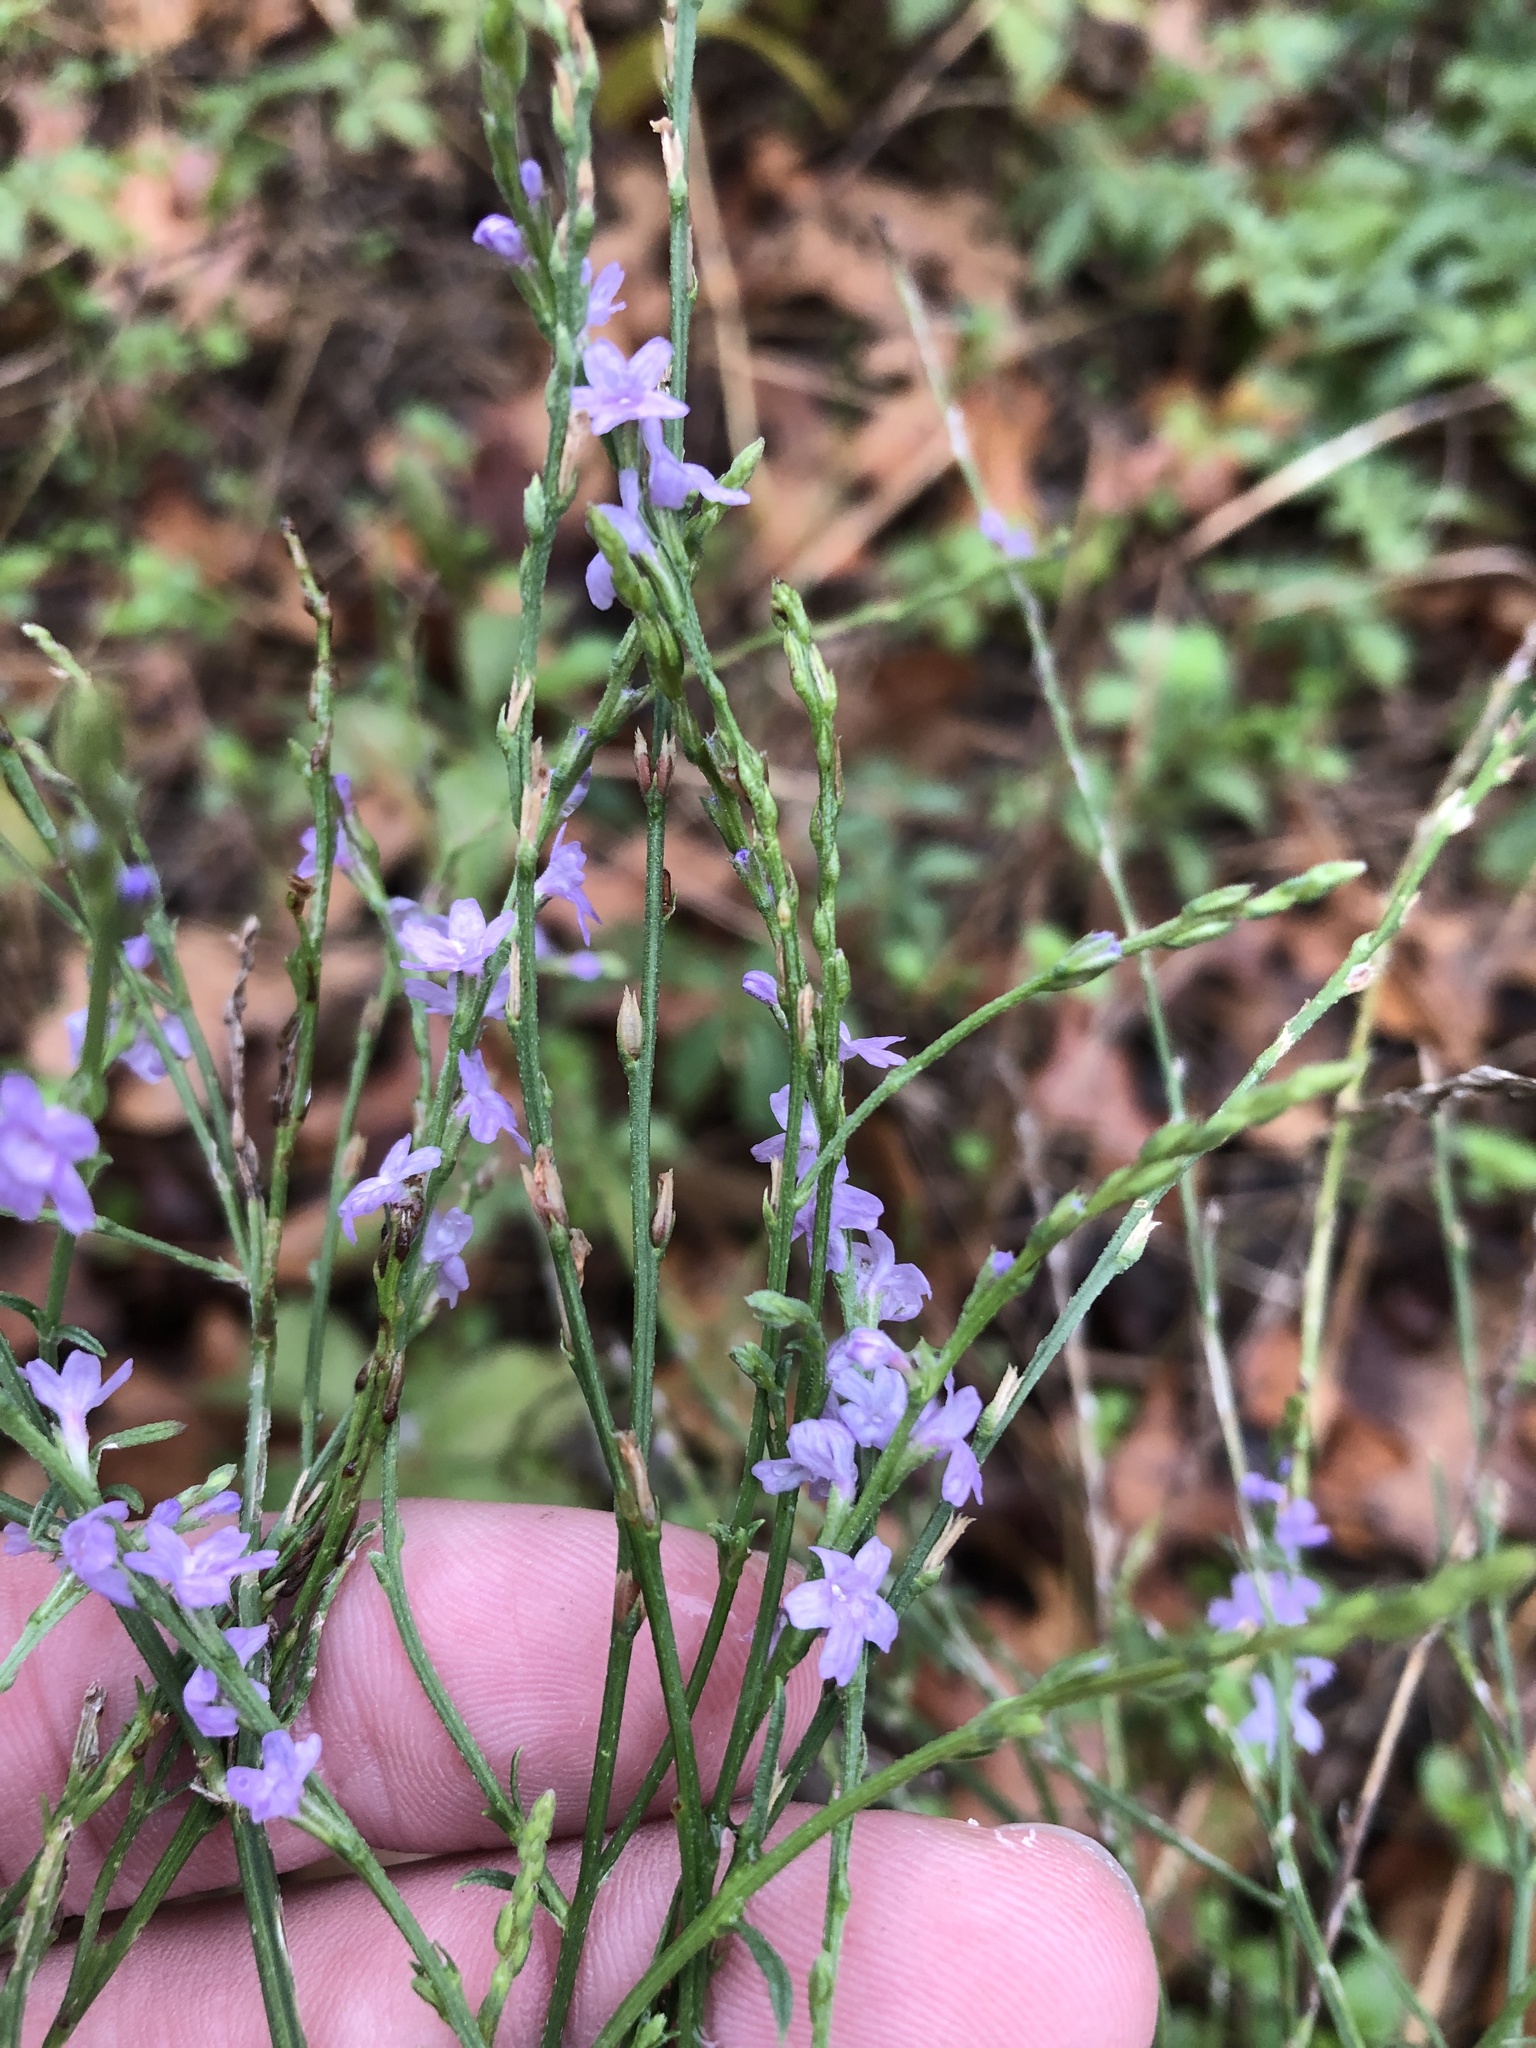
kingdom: Plantae
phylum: Tracheophyta
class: Magnoliopsida
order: Lamiales
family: Verbenaceae
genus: Verbena
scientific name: Verbena halei
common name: Texas vervain
